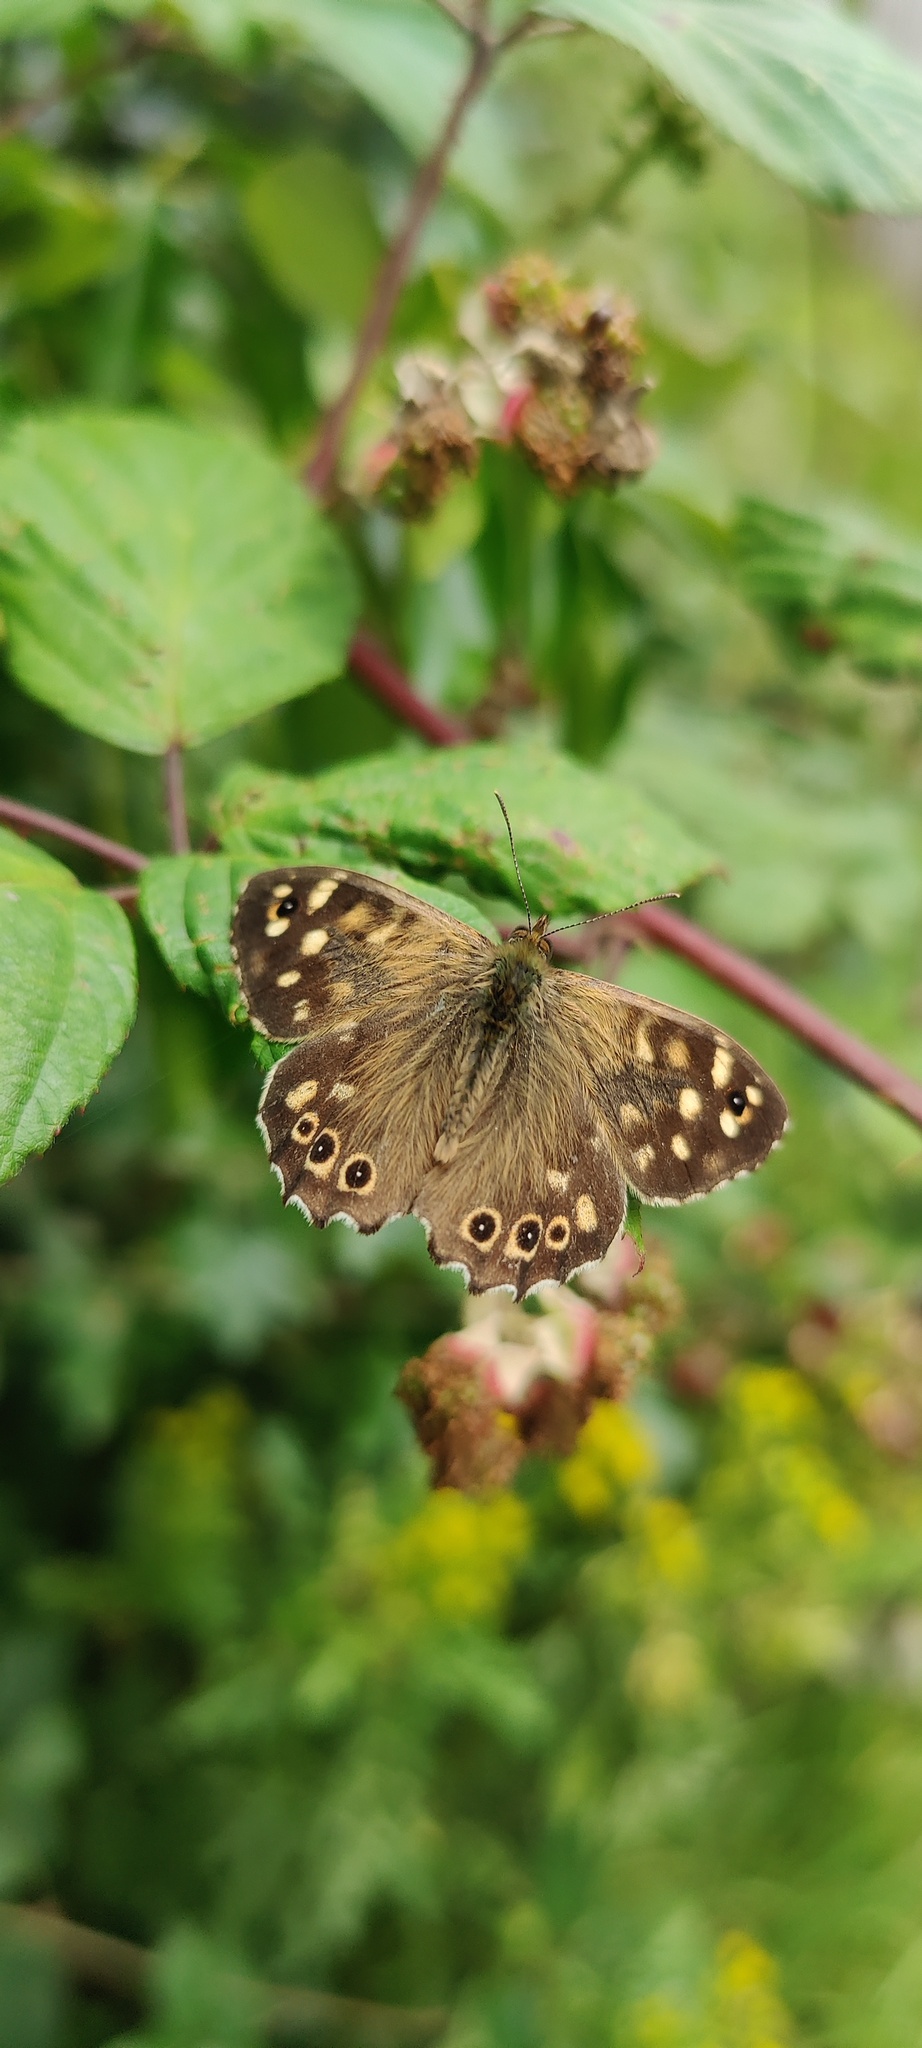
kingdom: Animalia
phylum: Arthropoda
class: Insecta
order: Lepidoptera
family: Nymphalidae
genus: Pararge
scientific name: Pararge aegeria
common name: Speckled wood
